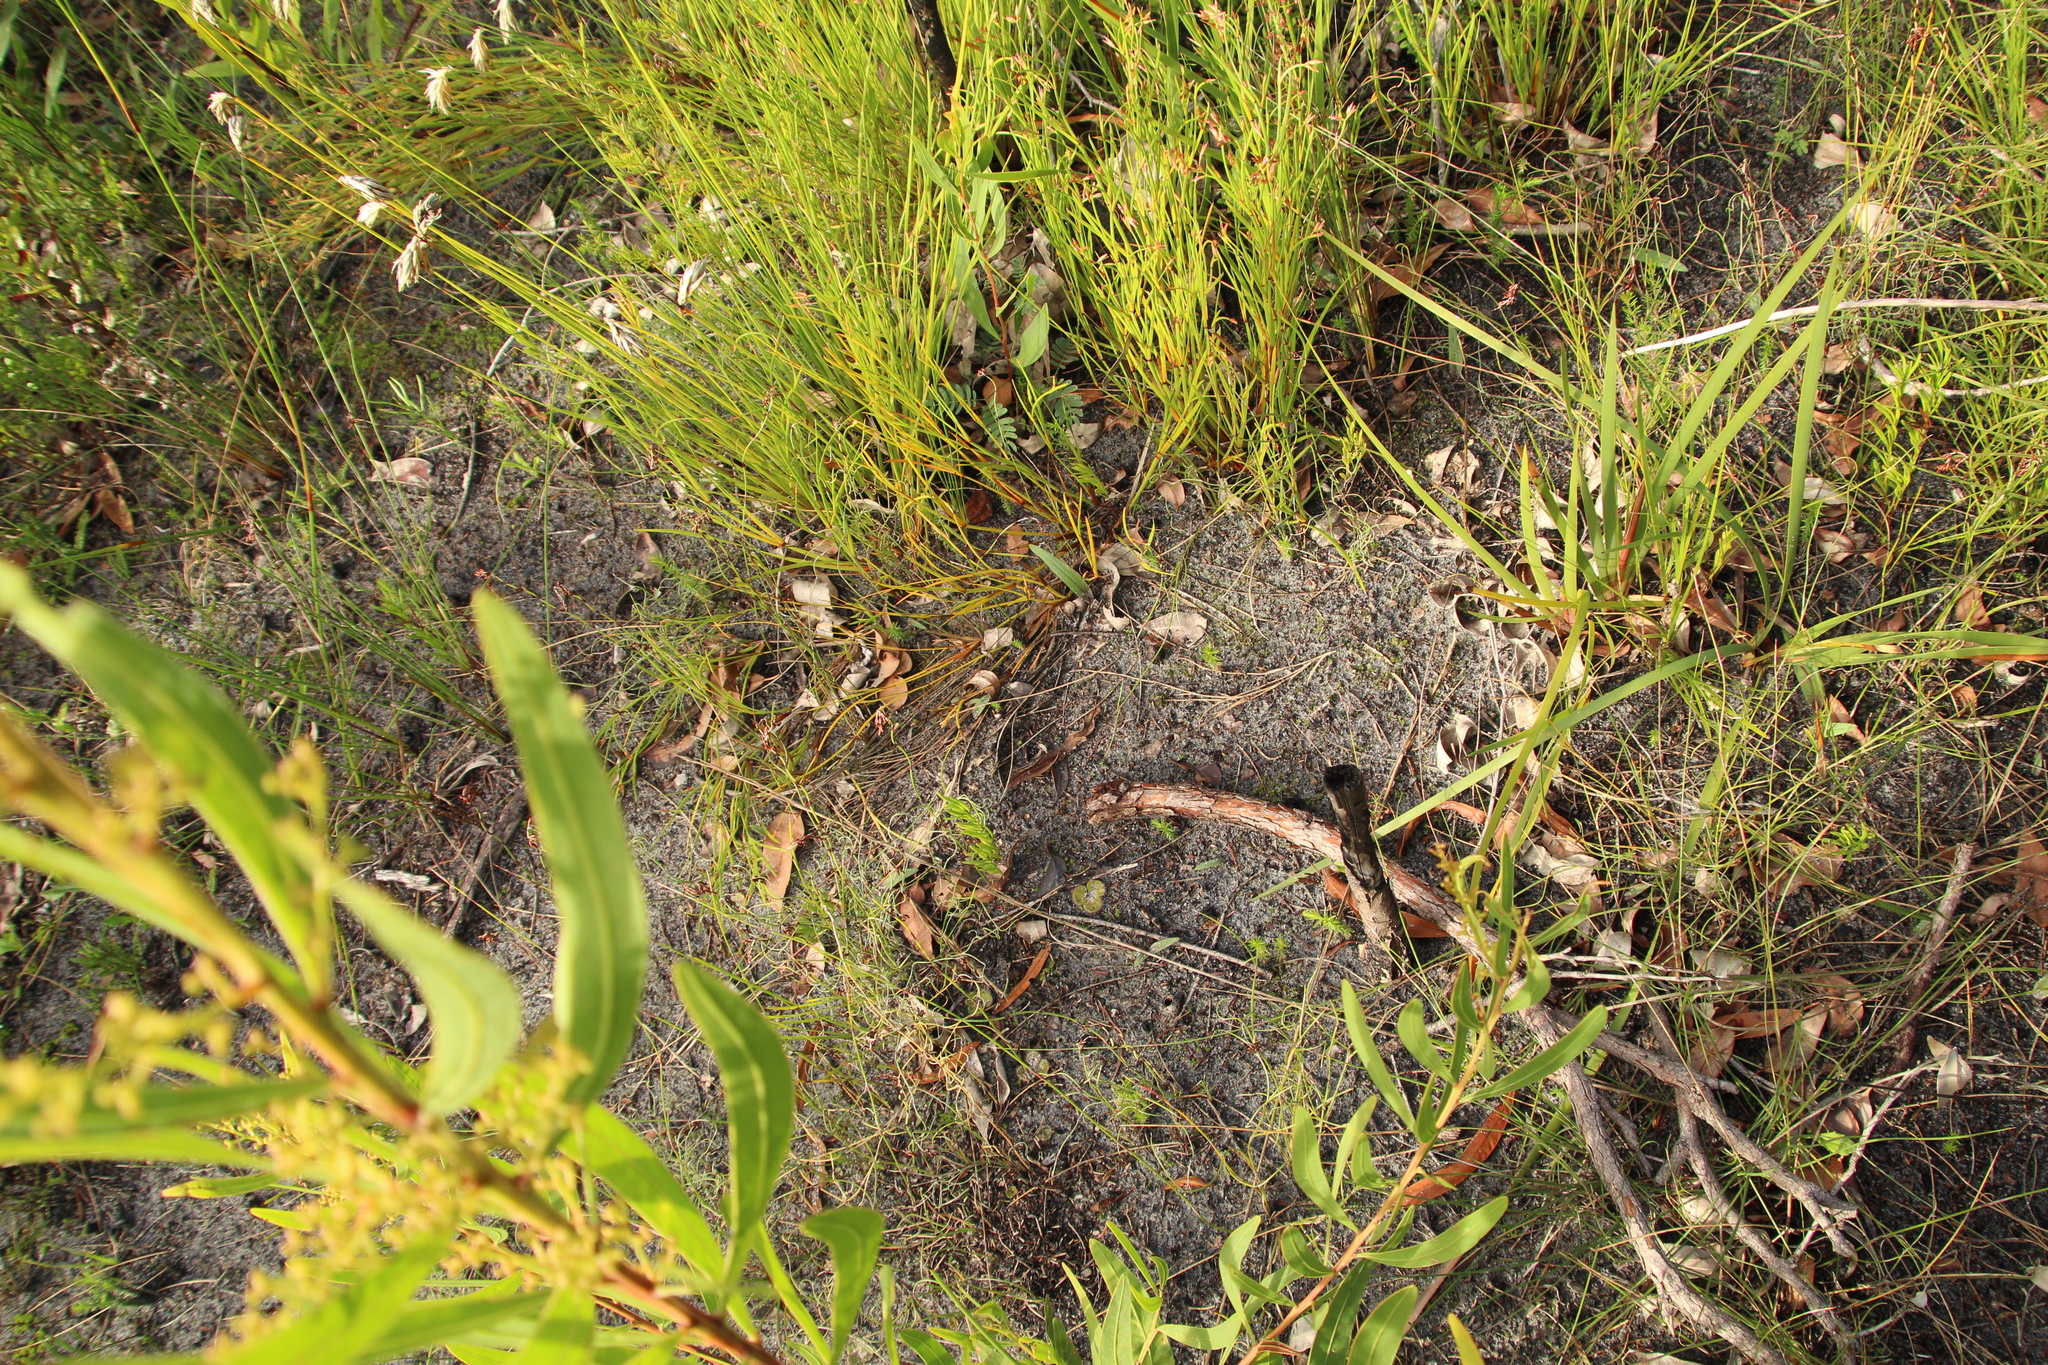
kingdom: Plantae
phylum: Tracheophyta
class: Liliopsida
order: Asparagales
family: Orchidaceae
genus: Caladenia
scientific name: Caladenia flava
